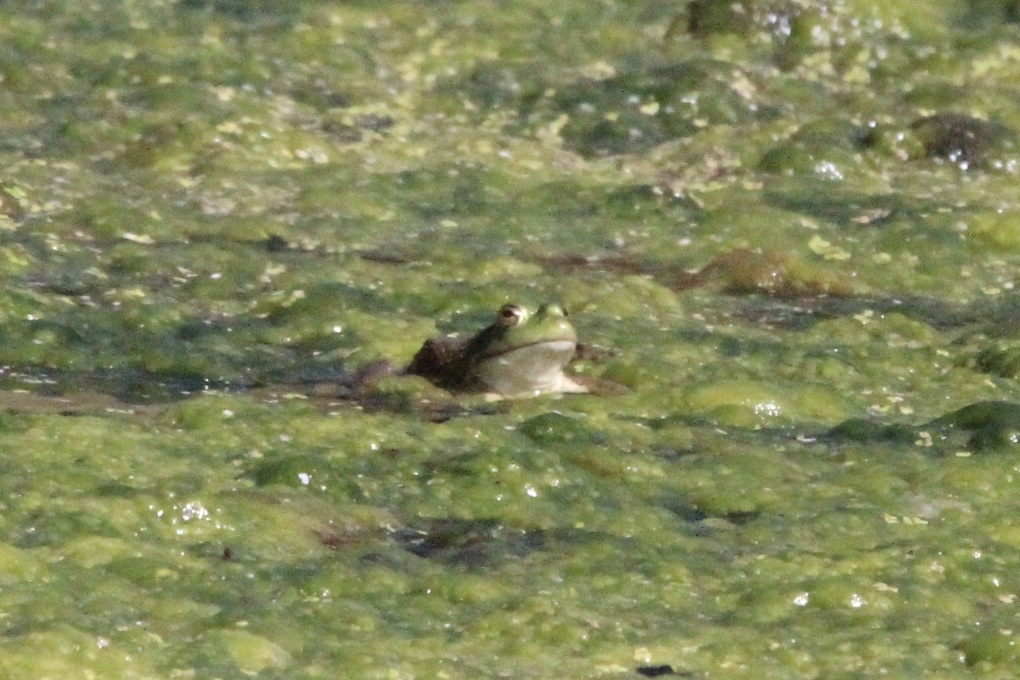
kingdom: Animalia
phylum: Chordata
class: Amphibia
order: Anura
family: Ranidae
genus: Lithobates
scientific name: Lithobates catesbeianus
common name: American bullfrog
